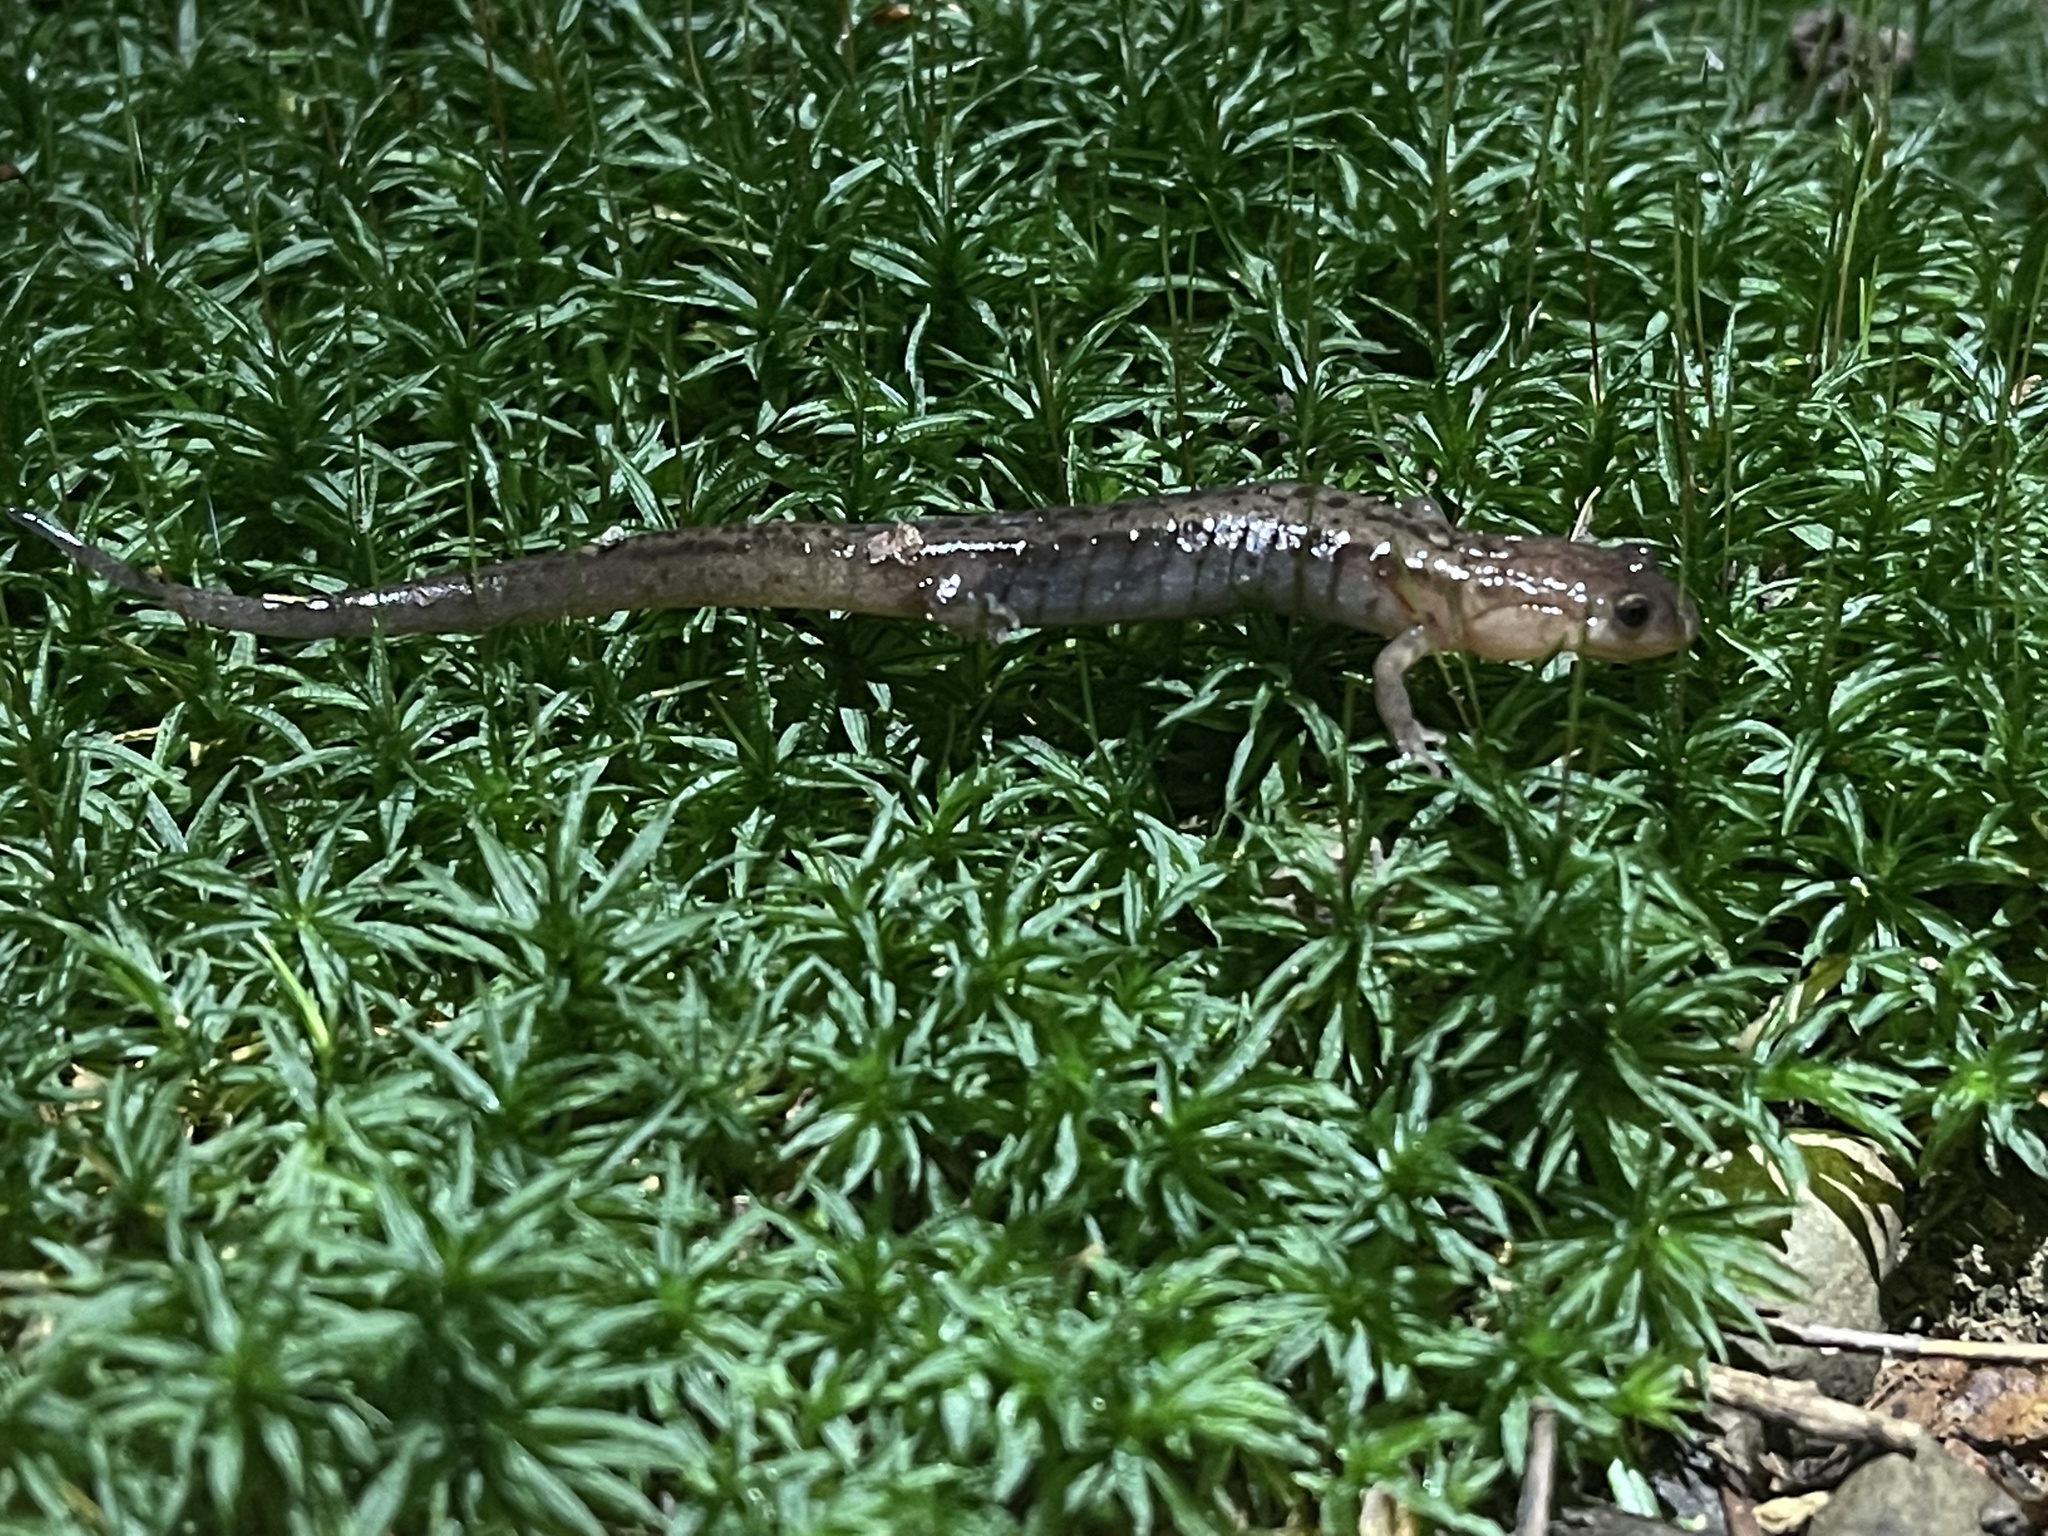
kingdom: Animalia
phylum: Chordata
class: Amphibia
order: Caudata
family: Plethodontidae
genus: Desmognathus
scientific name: Desmognathus ochrophaeus
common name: Allegheny mountain dusky salamander
